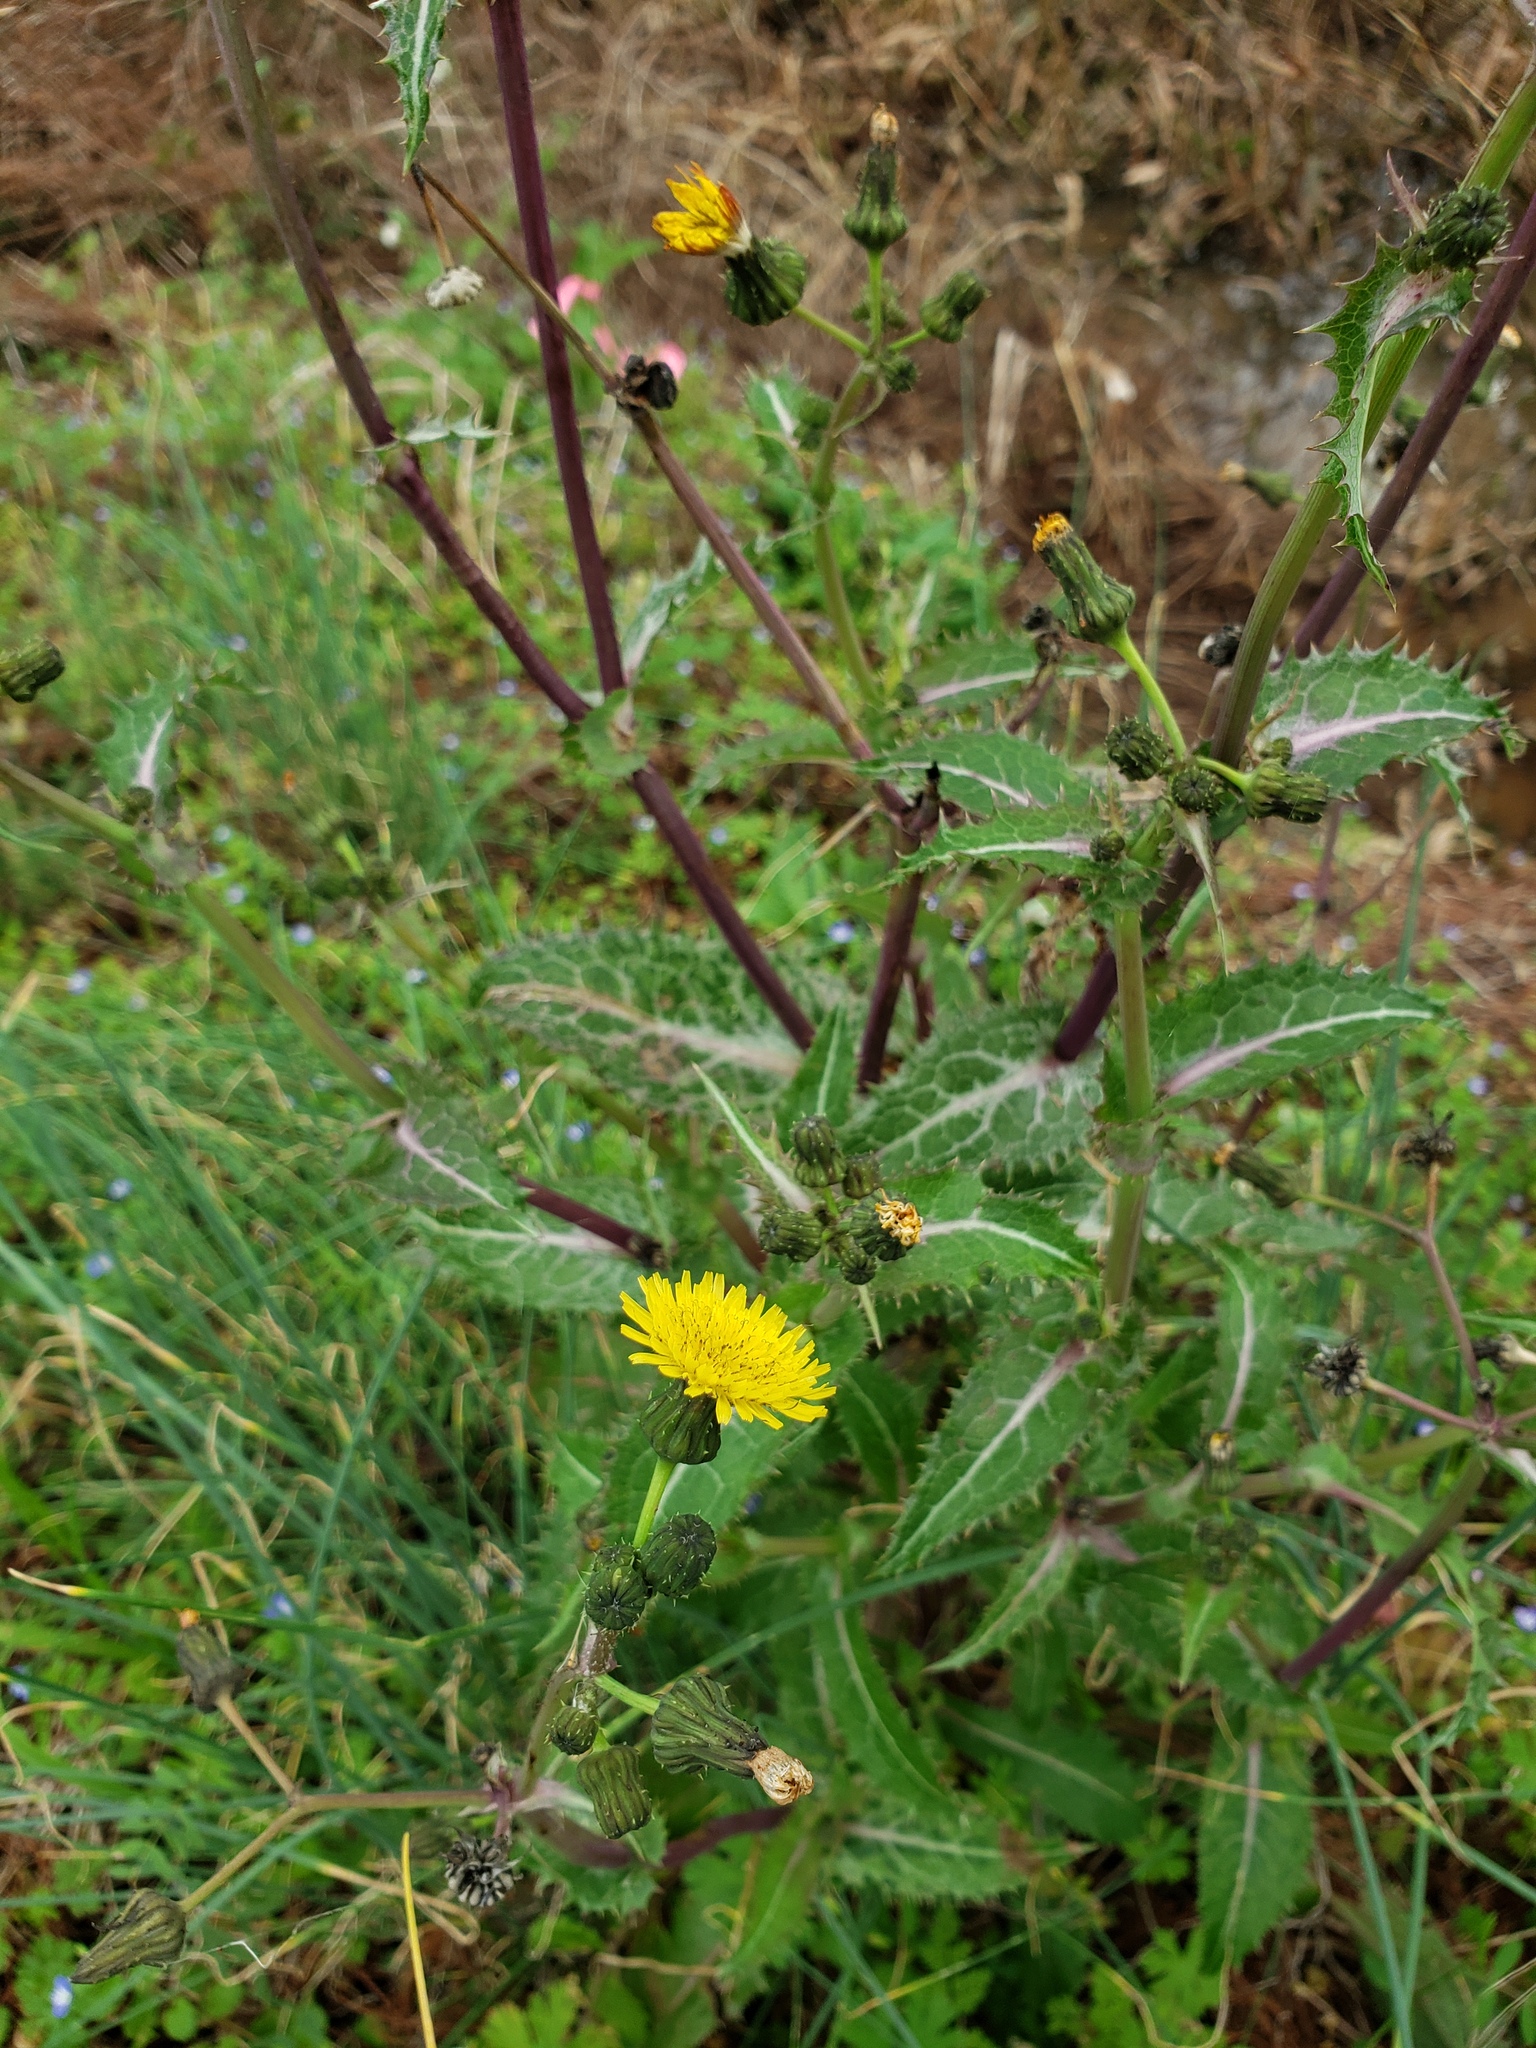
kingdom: Plantae
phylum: Tracheophyta
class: Magnoliopsida
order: Asterales
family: Asteraceae
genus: Sonchus
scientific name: Sonchus asper
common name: Prickly sow-thistle
